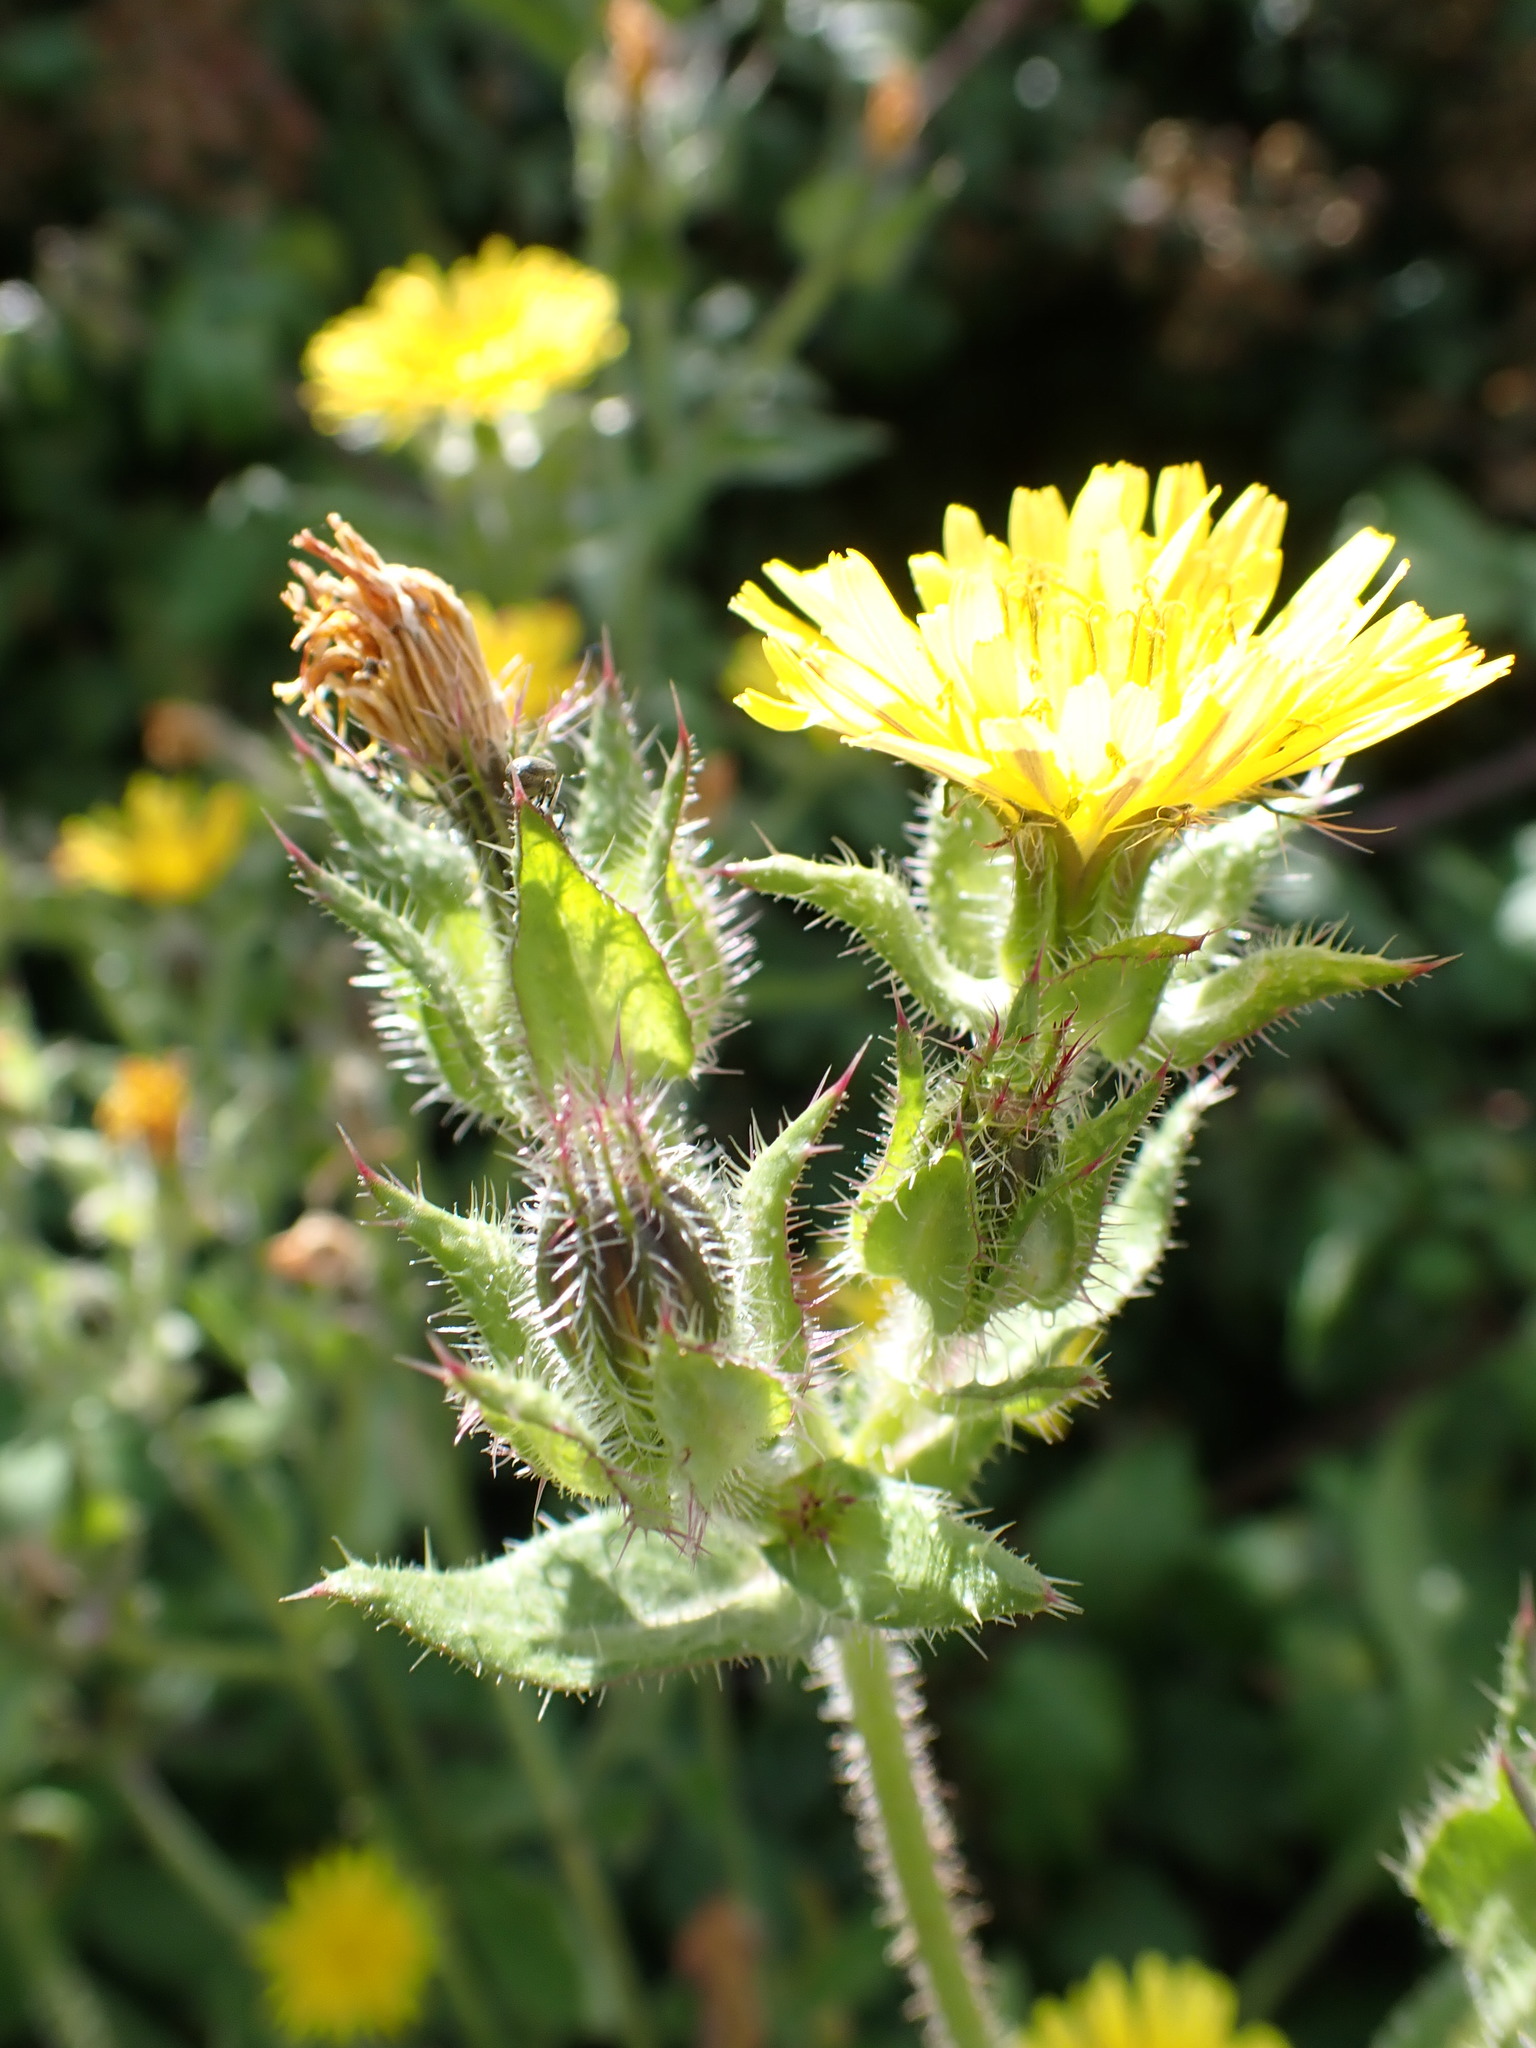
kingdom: Plantae
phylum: Tracheophyta
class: Magnoliopsida
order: Asterales
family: Asteraceae
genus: Helminthotheca
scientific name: Helminthotheca echioides
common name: Ox-tongue
